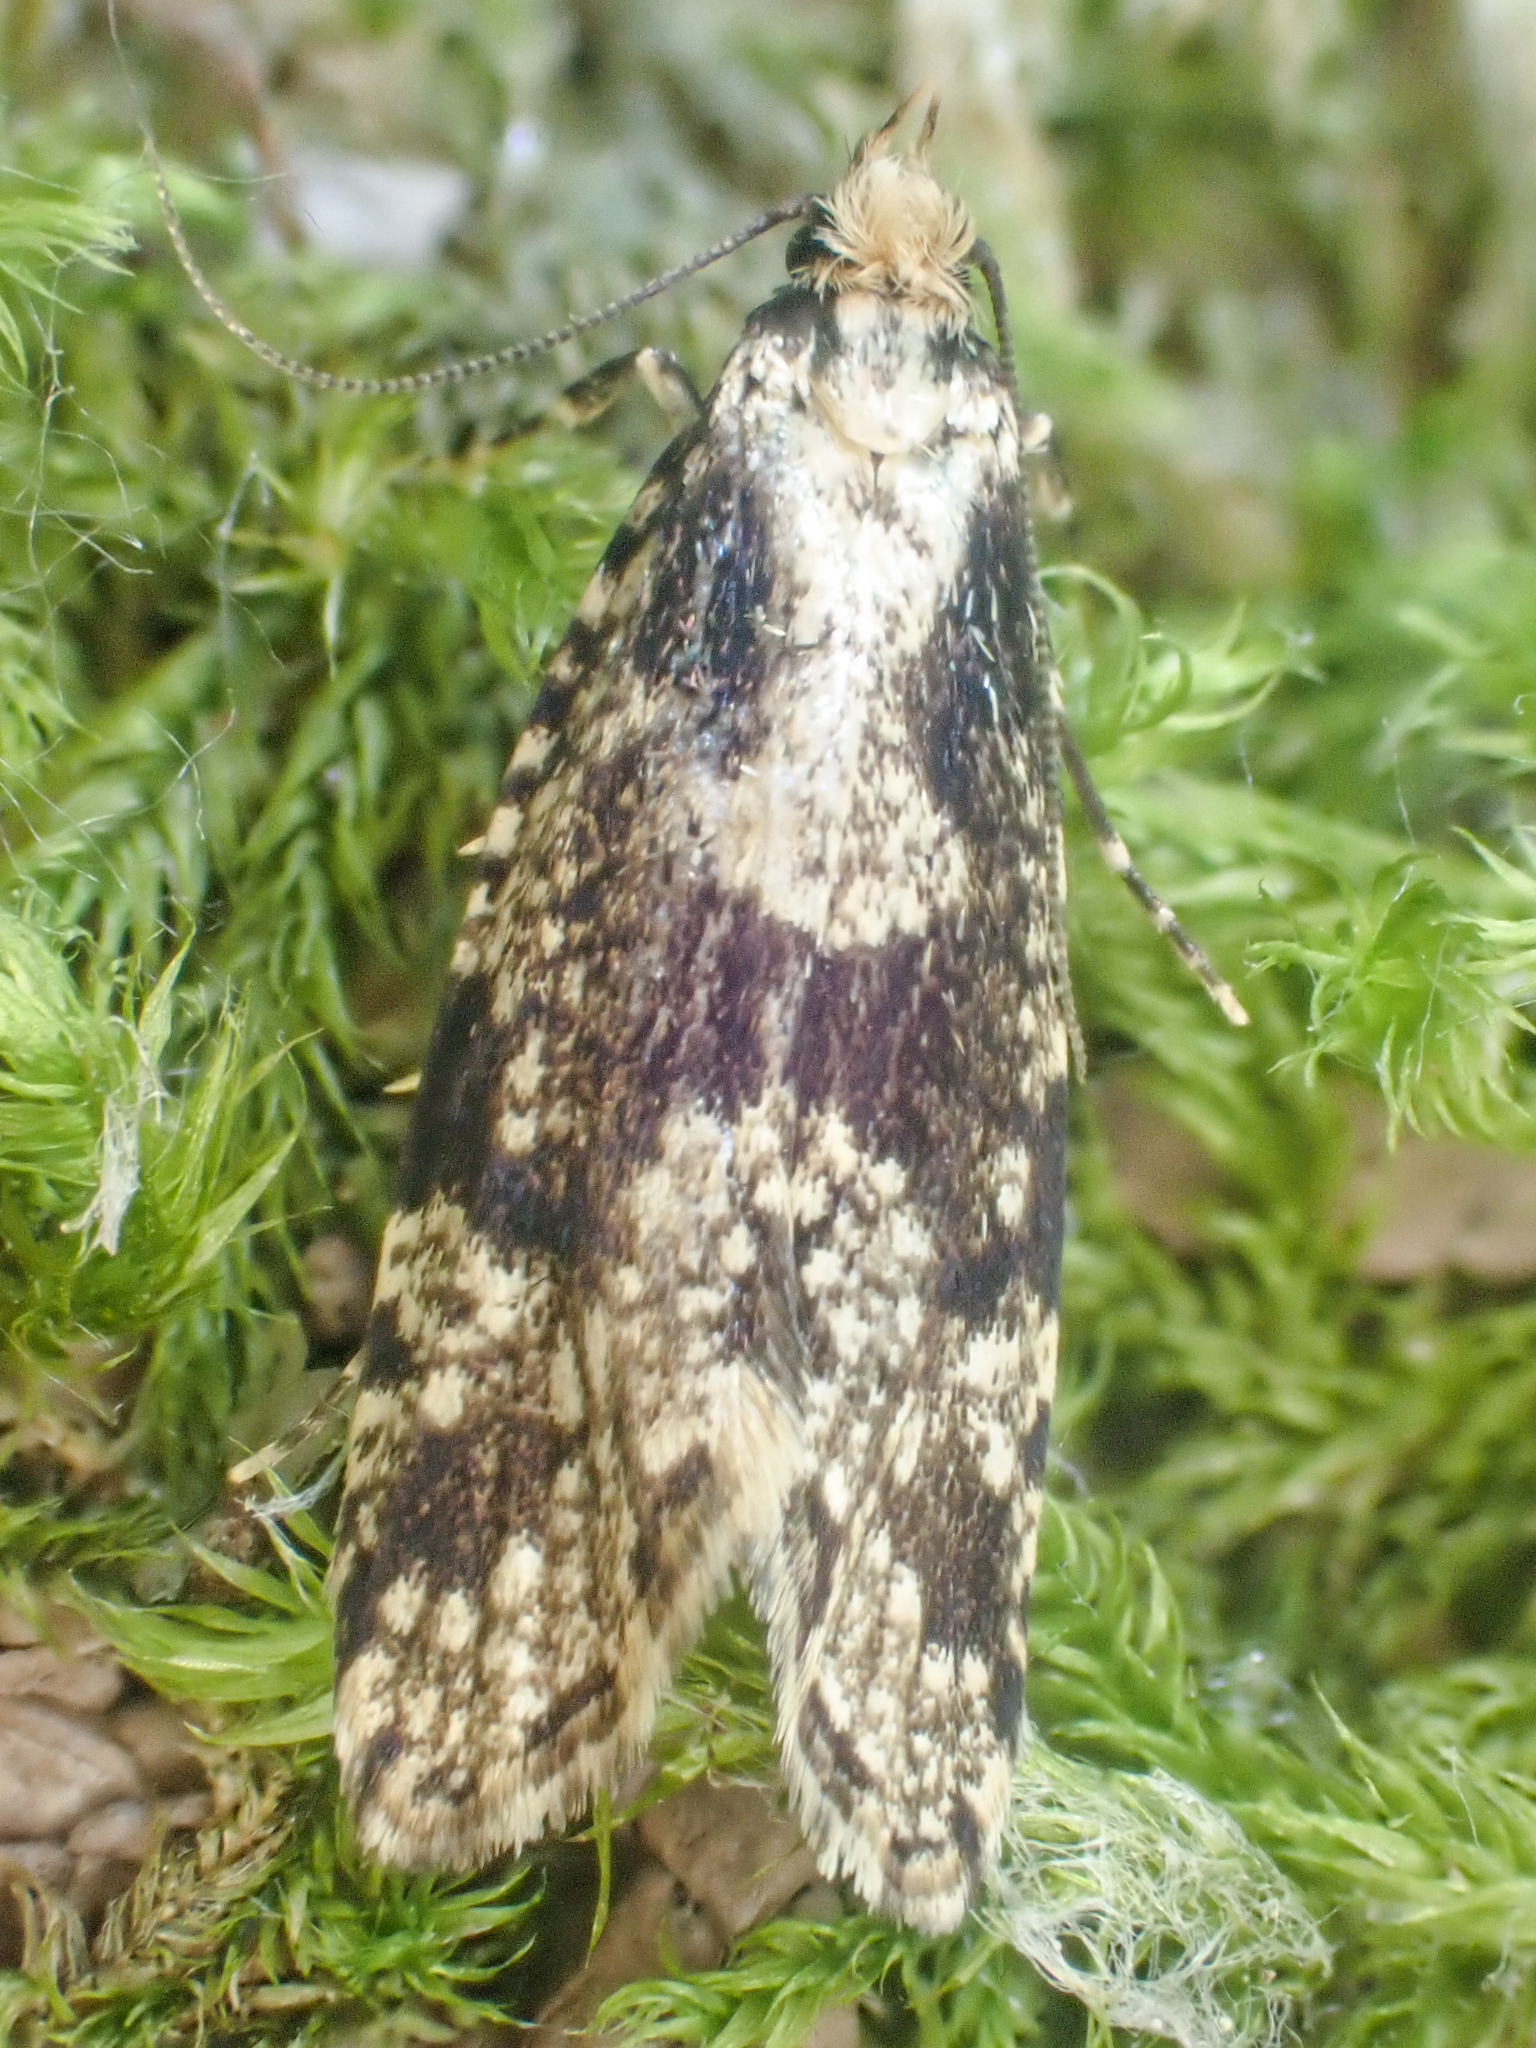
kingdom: Animalia
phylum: Arthropoda
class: Insecta
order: Lepidoptera
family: Tineidae
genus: Morophagoides
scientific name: Morophagoides burkerella
